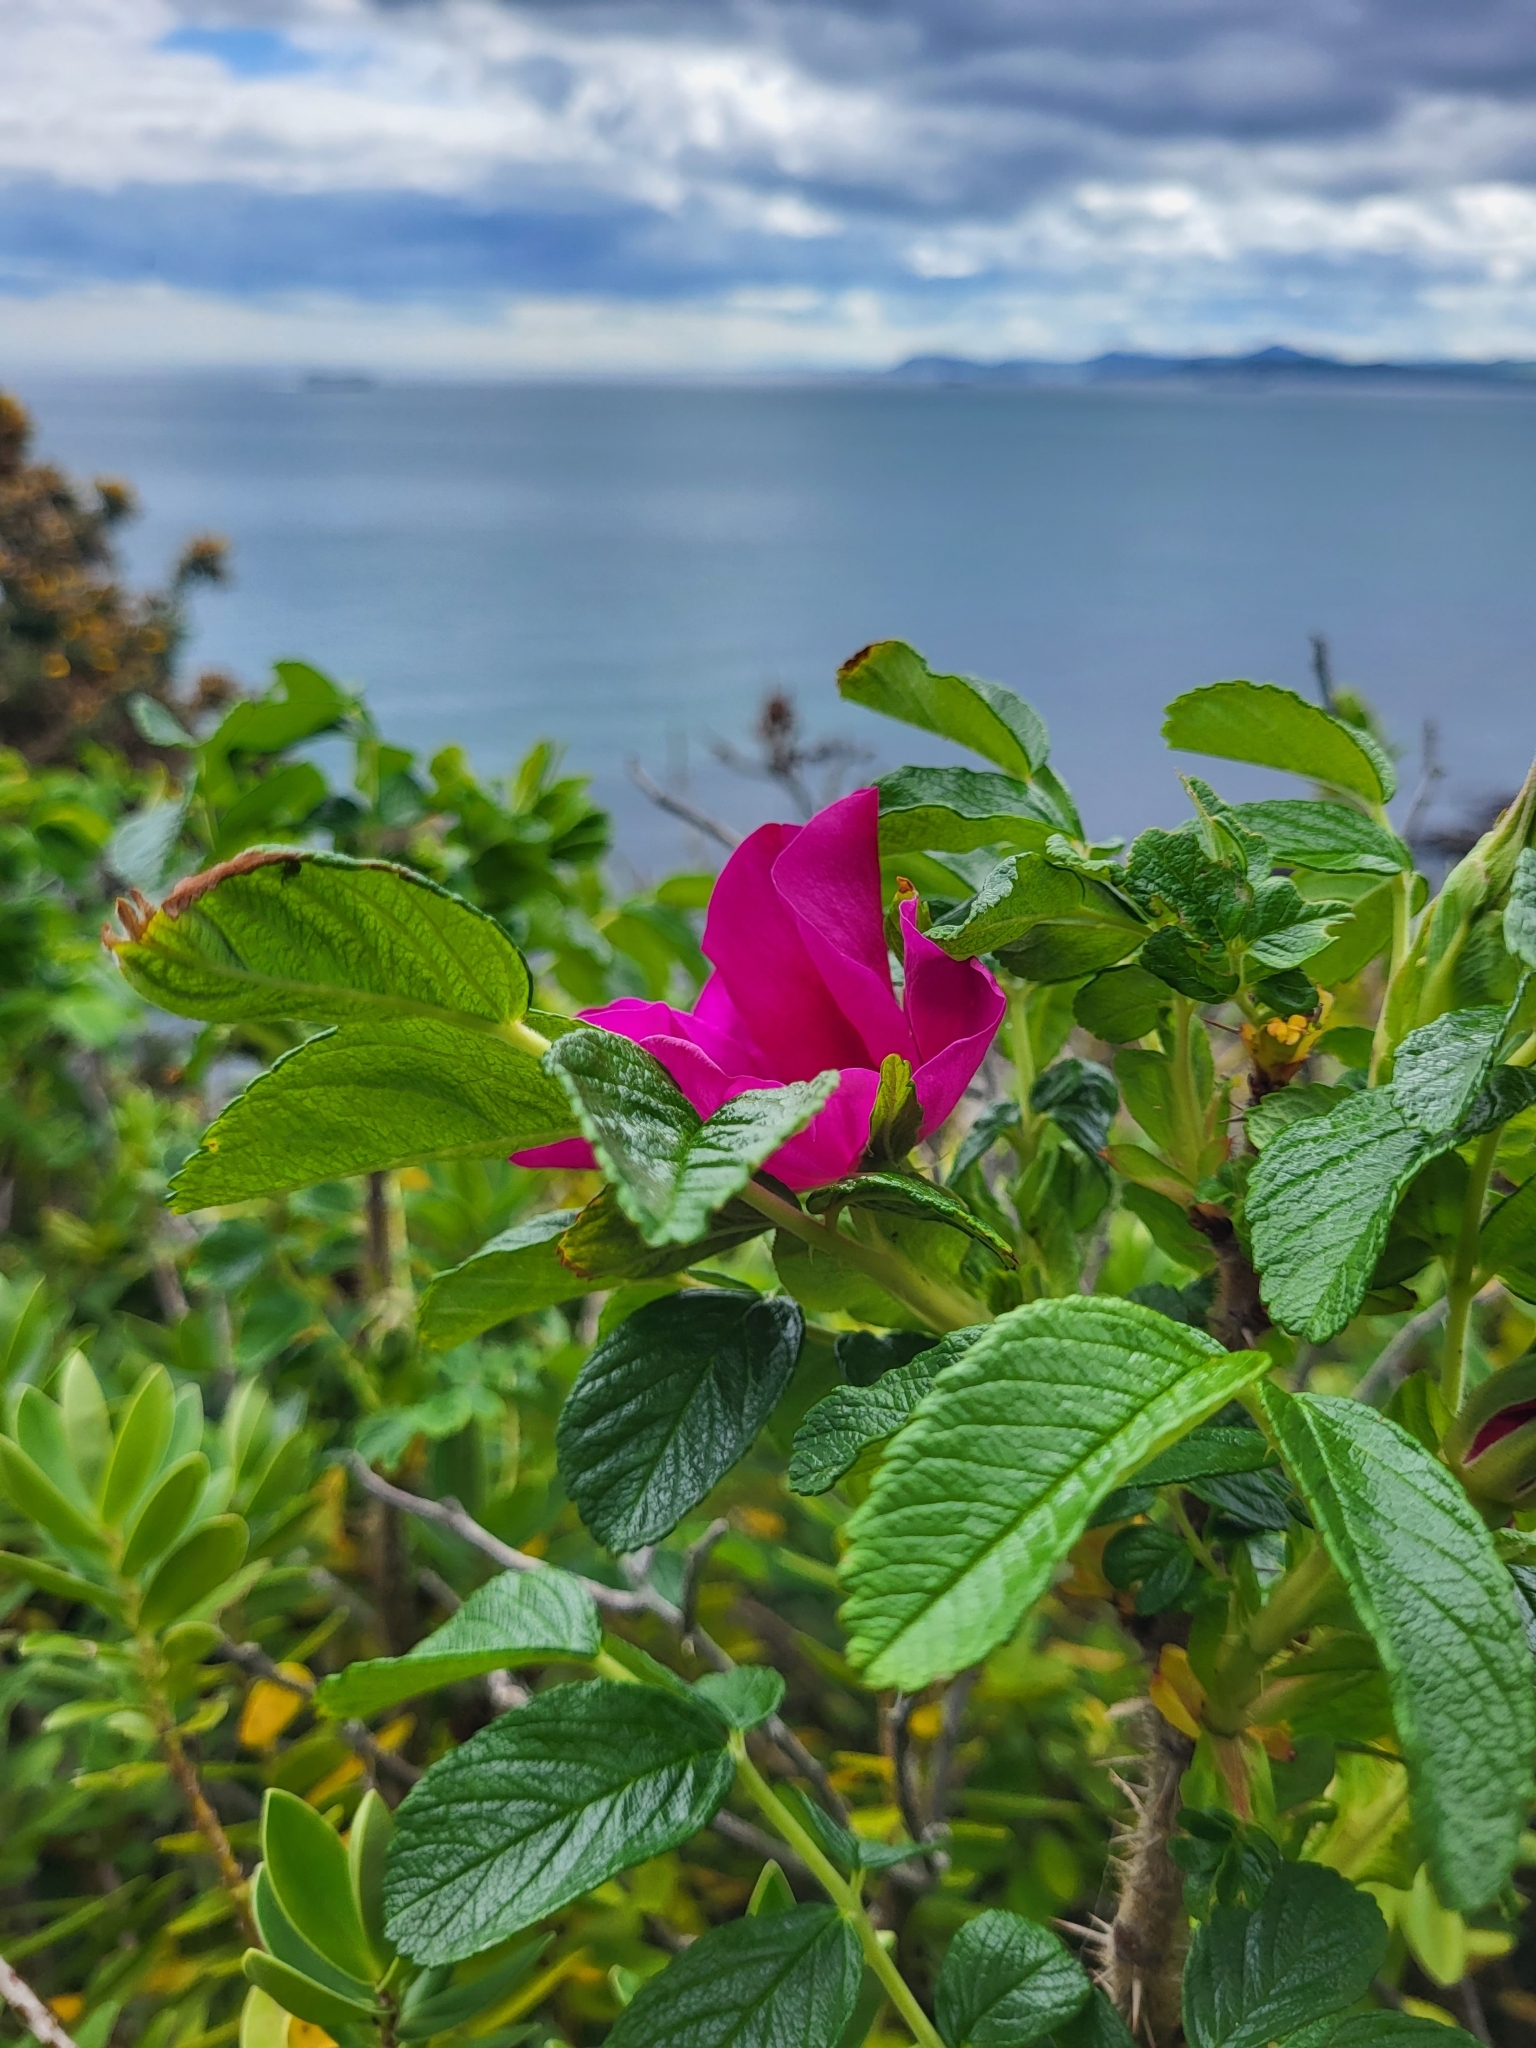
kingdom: Plantae
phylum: Tracheophyta
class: Magnoliopsida
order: Rosales
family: Rosaceae
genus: Rosa
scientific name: Rosa rugosa
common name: Japanese rose
